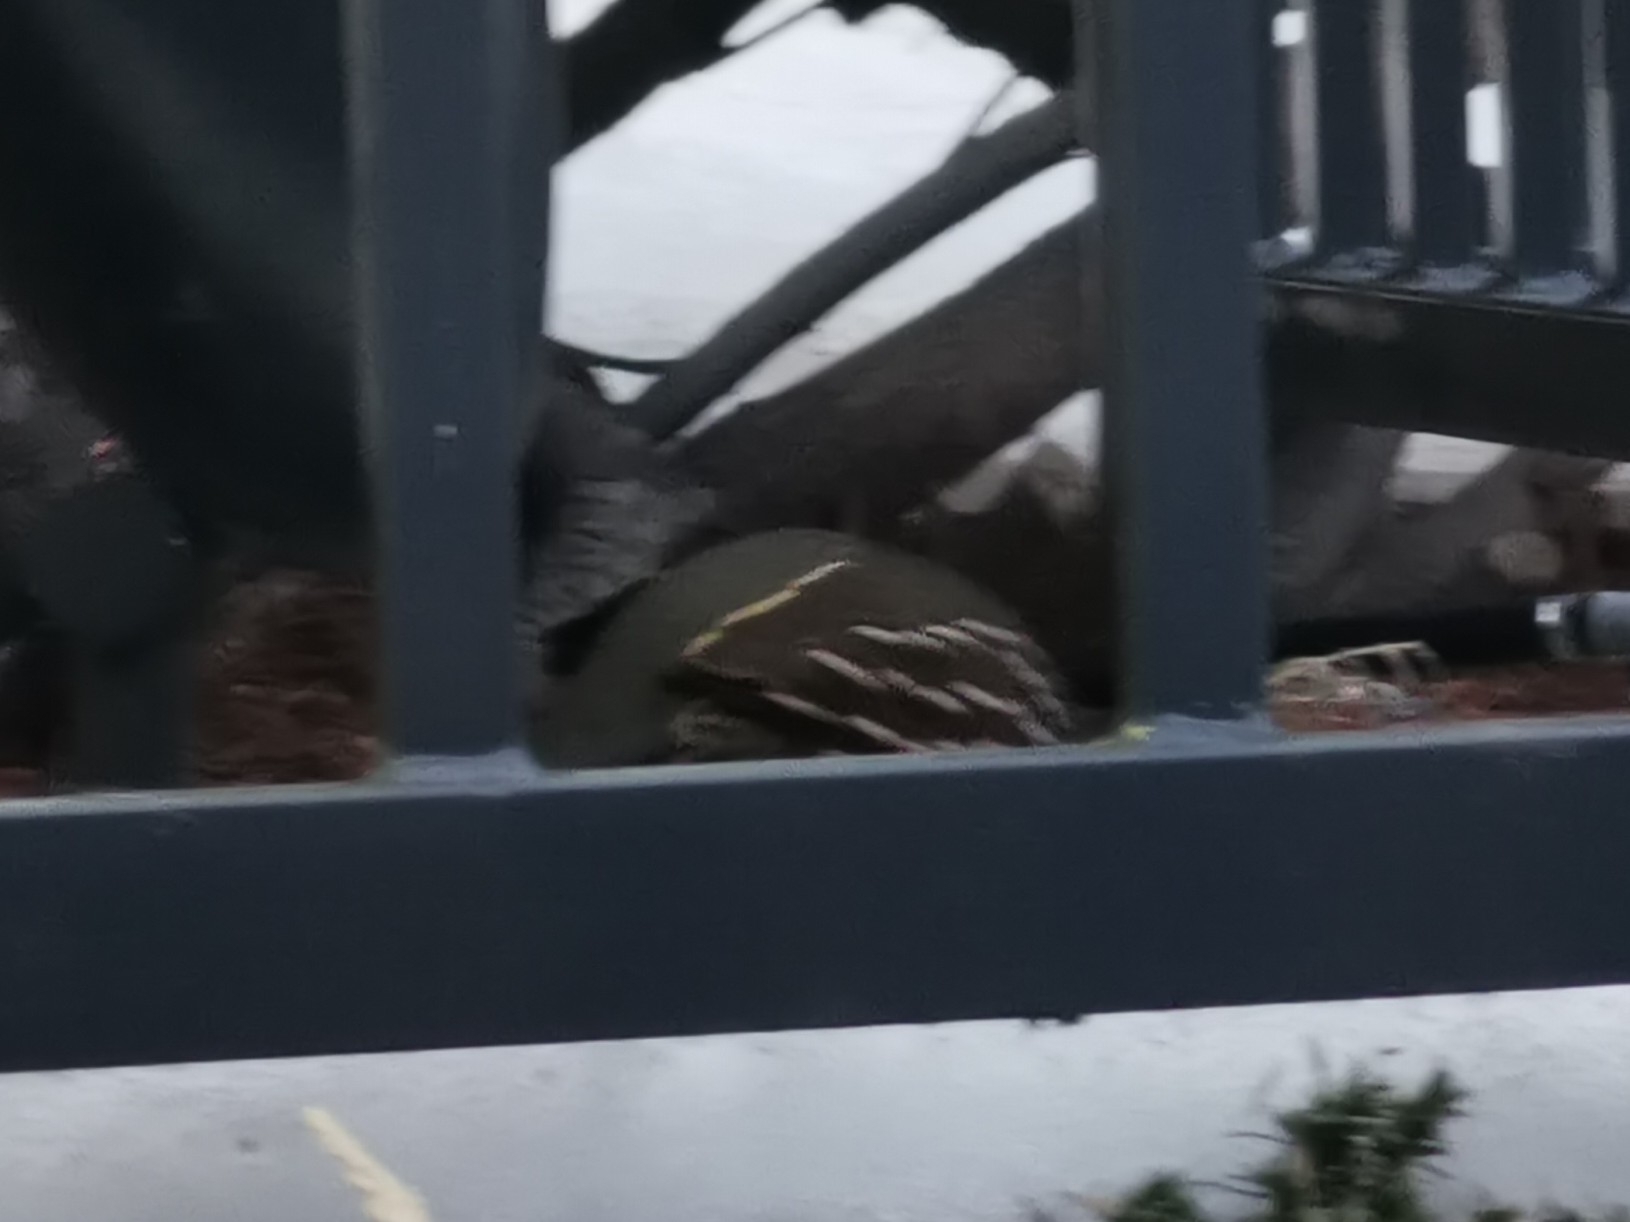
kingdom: Animalia
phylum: Chordata
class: Aves
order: Galliformes
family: Odontophoridae
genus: Callipepla
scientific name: Callipepla californica
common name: California quail
